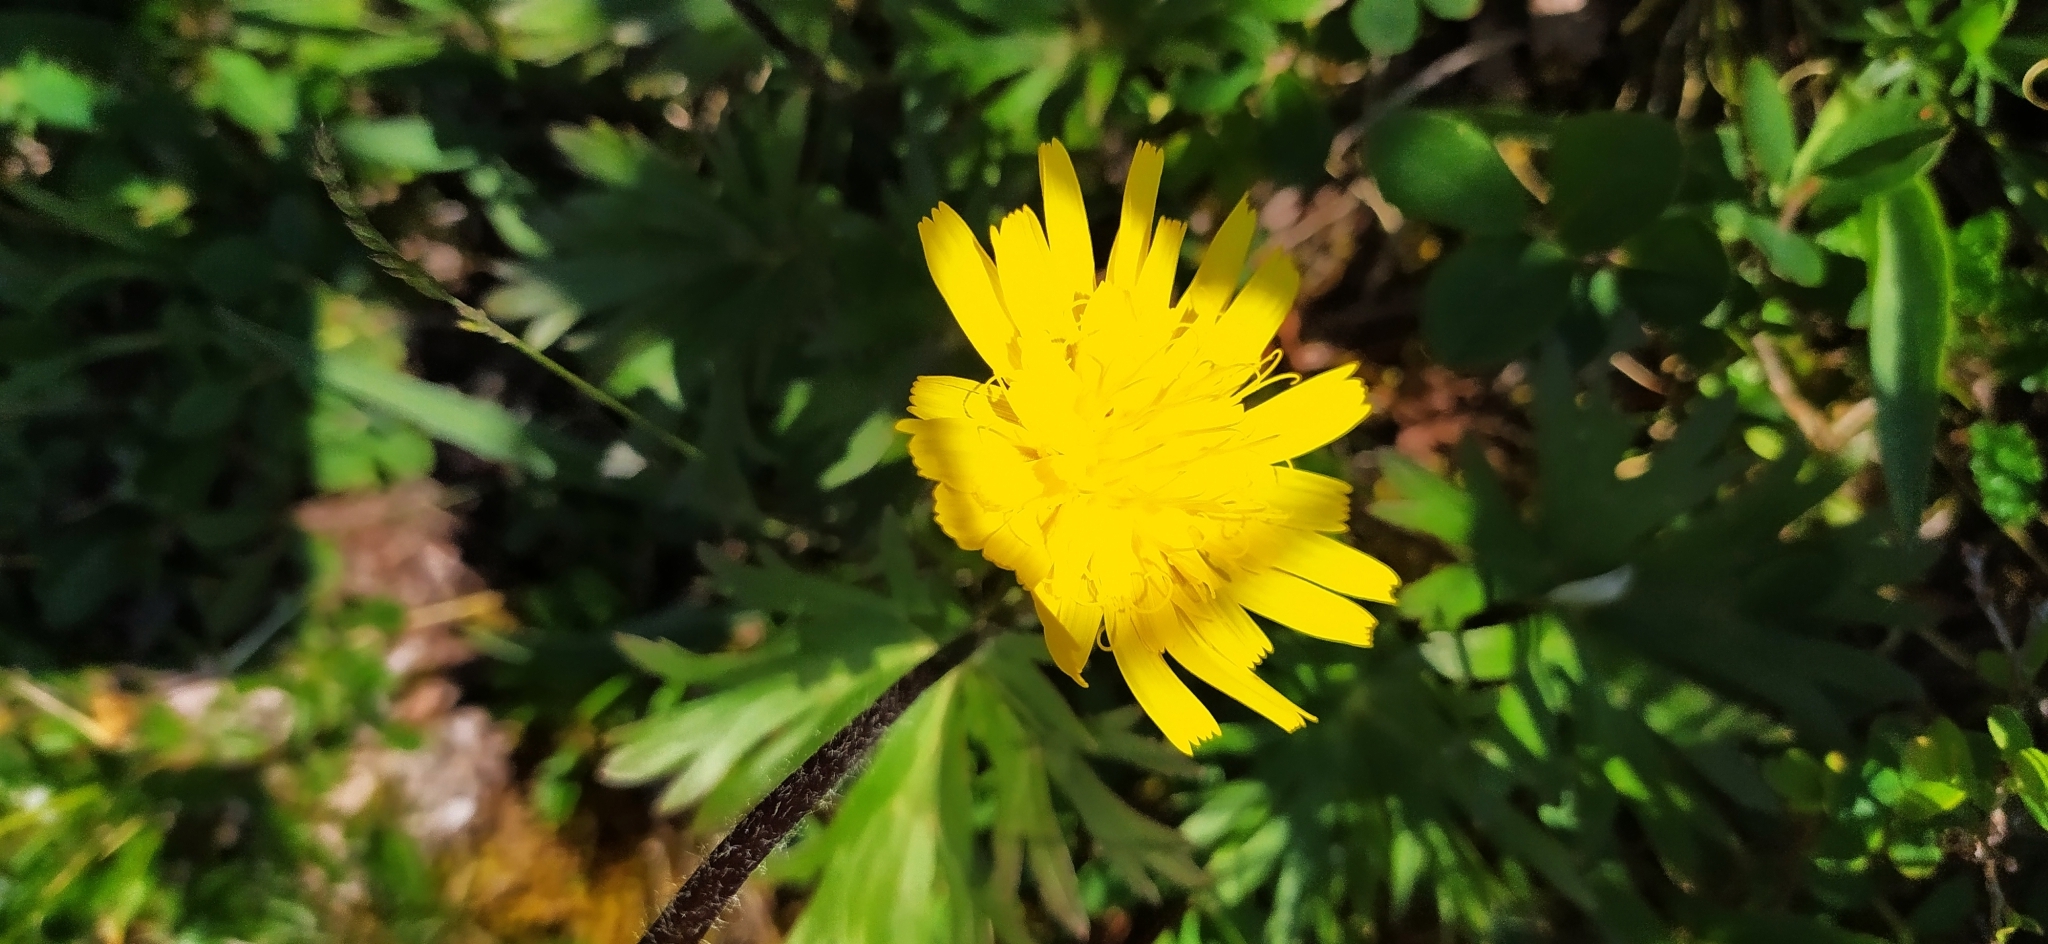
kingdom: Plantae
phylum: Tracheophyta
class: Magnoliopsida
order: Asterales
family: Asteraceae
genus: Crepis
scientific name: Crepis chrysantha
